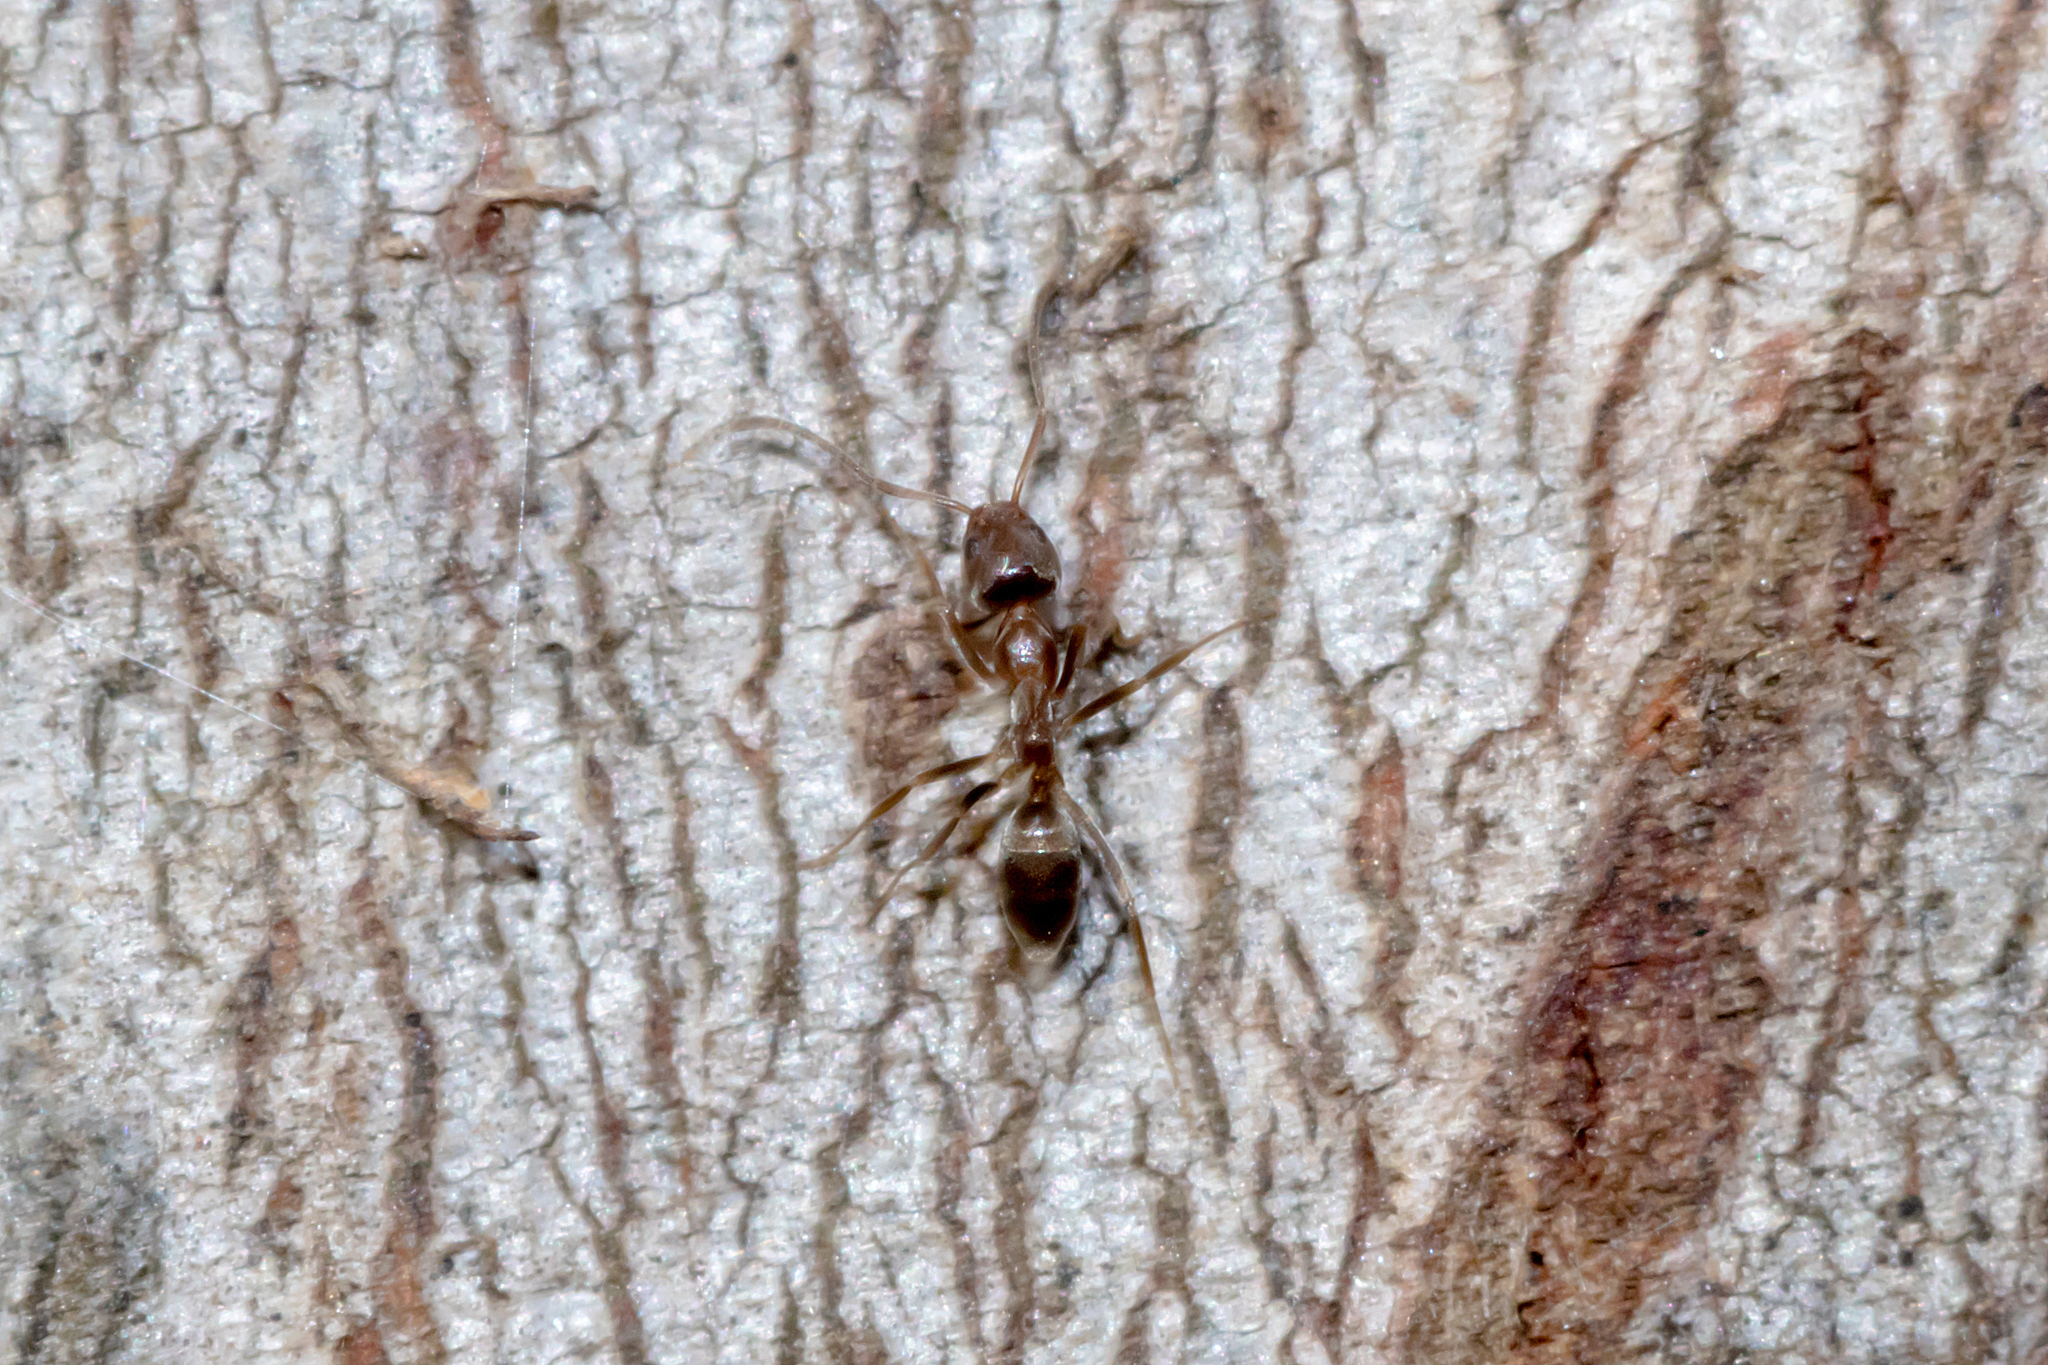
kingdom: Animalia
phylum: Arthropoda
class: Insecta
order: Hymenoptera
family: Formicidae
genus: Linepithema
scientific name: Linepithema humile
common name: Argentine ant
